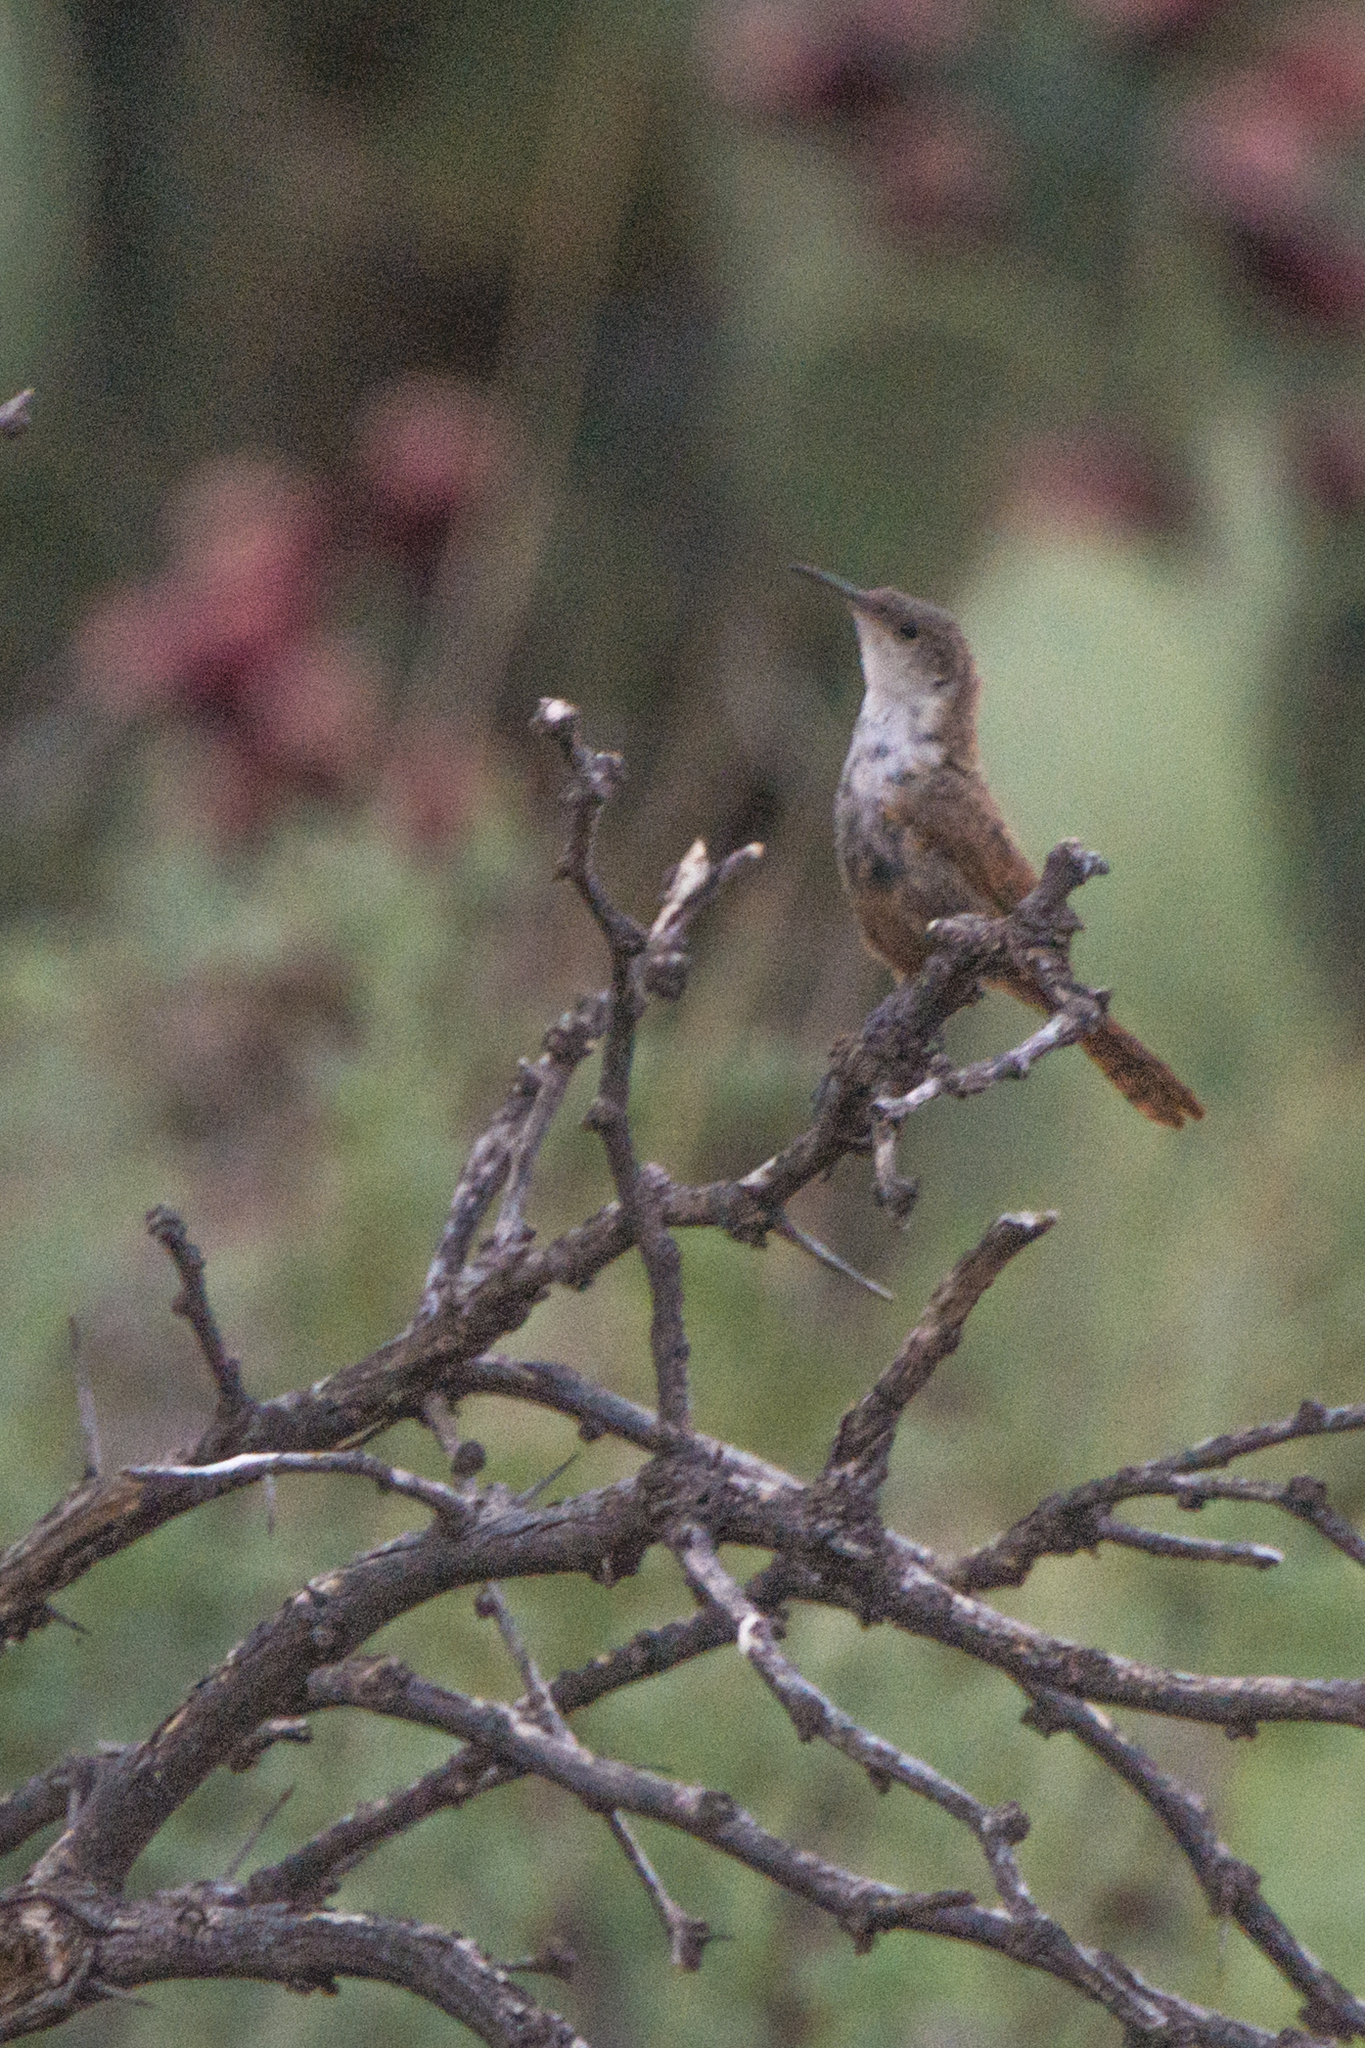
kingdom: Animalia
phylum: Chordata
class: Aves
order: Passeriformes
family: Troglodytidae
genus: Catherpes
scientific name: Catherpes mexicanus
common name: Canyon wren
